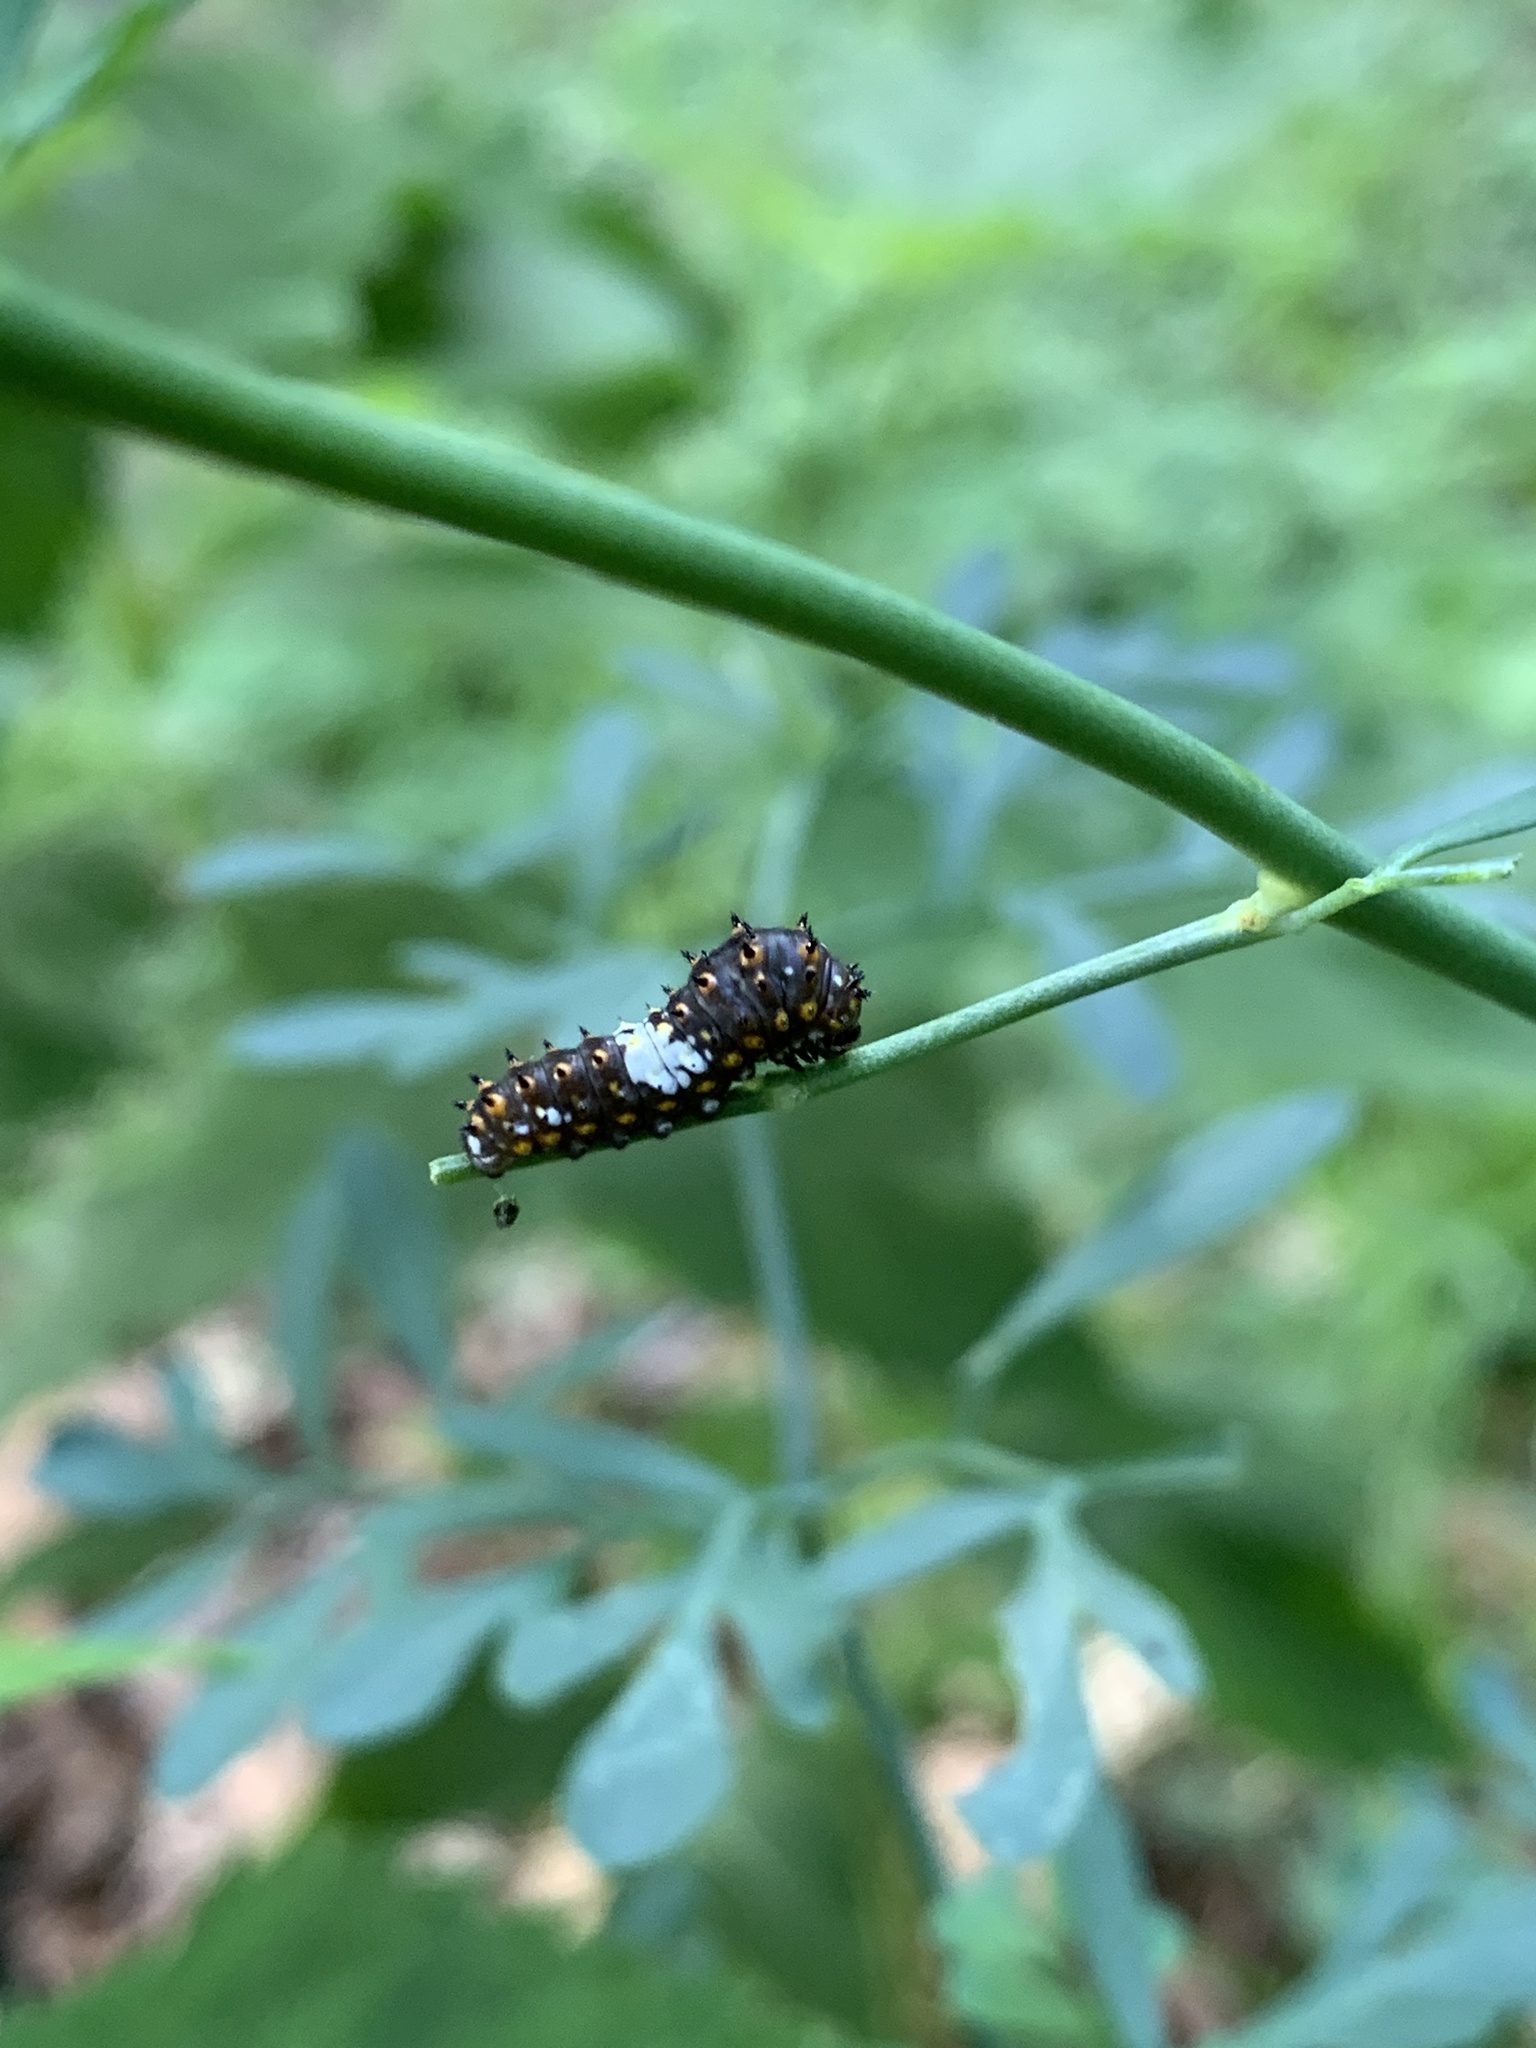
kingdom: Animalia
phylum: Arthropoda
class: Insecta
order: Lepidoptera
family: Papilionidae
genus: Papilio
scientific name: Papilio polyxenes
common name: Black swallowtail
